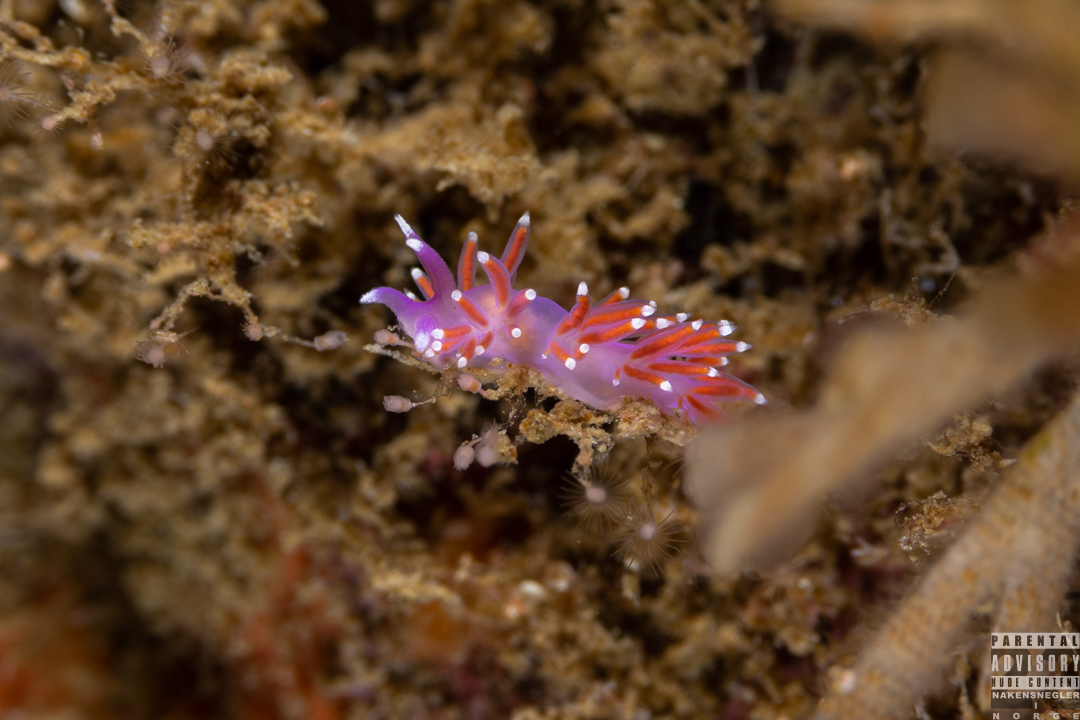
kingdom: Animalia
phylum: Mollusca
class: Gastropoda
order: Nudibranchia
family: Flabellinidae
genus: Edmundsella
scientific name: Edmundsella pedata
